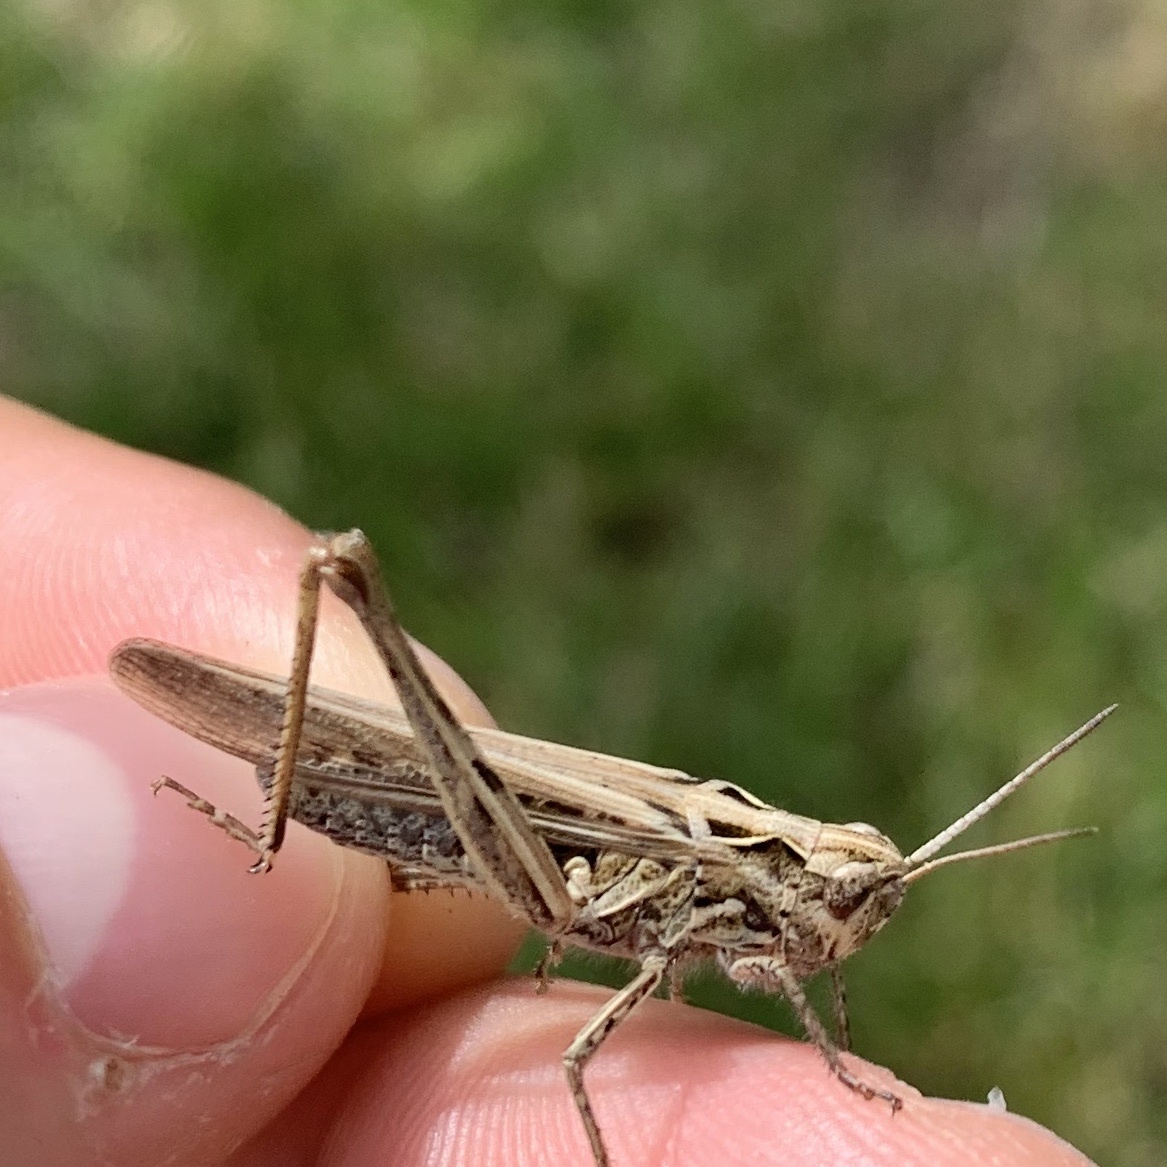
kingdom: Animalia
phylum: Arthropoda
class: Insecta
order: Orthoptera
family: Acrididae
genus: Chorthippus
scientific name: Chorthippus brunneus
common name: Field grasshopper
